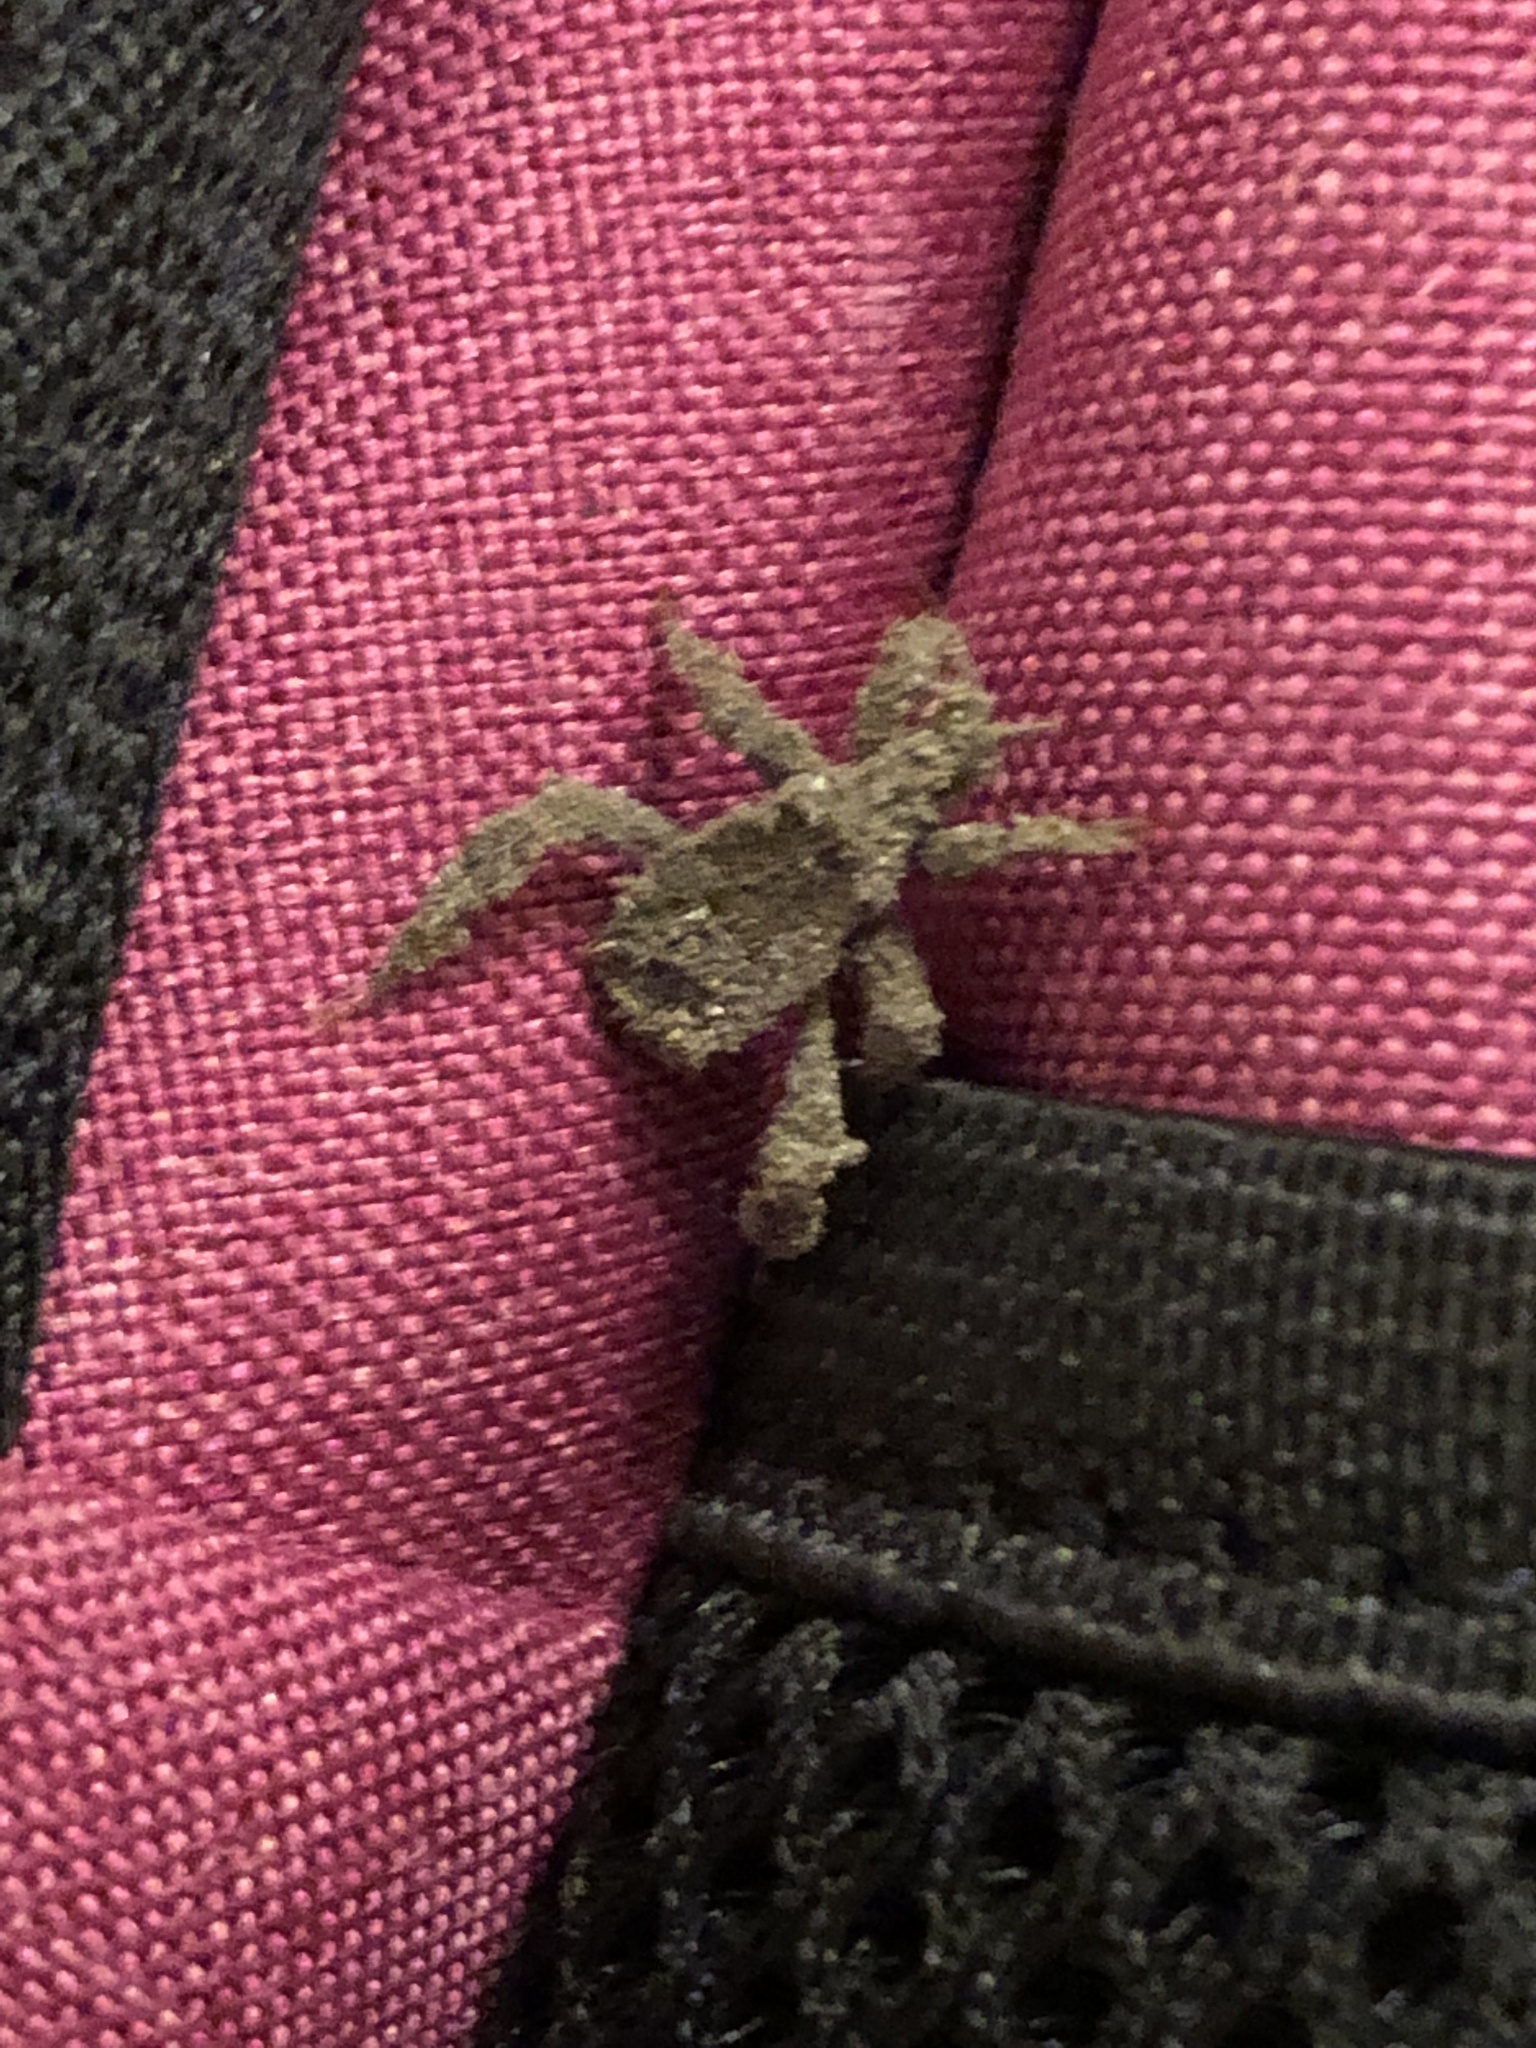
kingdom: Animalia
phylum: Arthropoda
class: Insecta
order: Hemiptera
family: Reduviidae
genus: Reduvius
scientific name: Reduvius personatus
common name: Masked hunter
